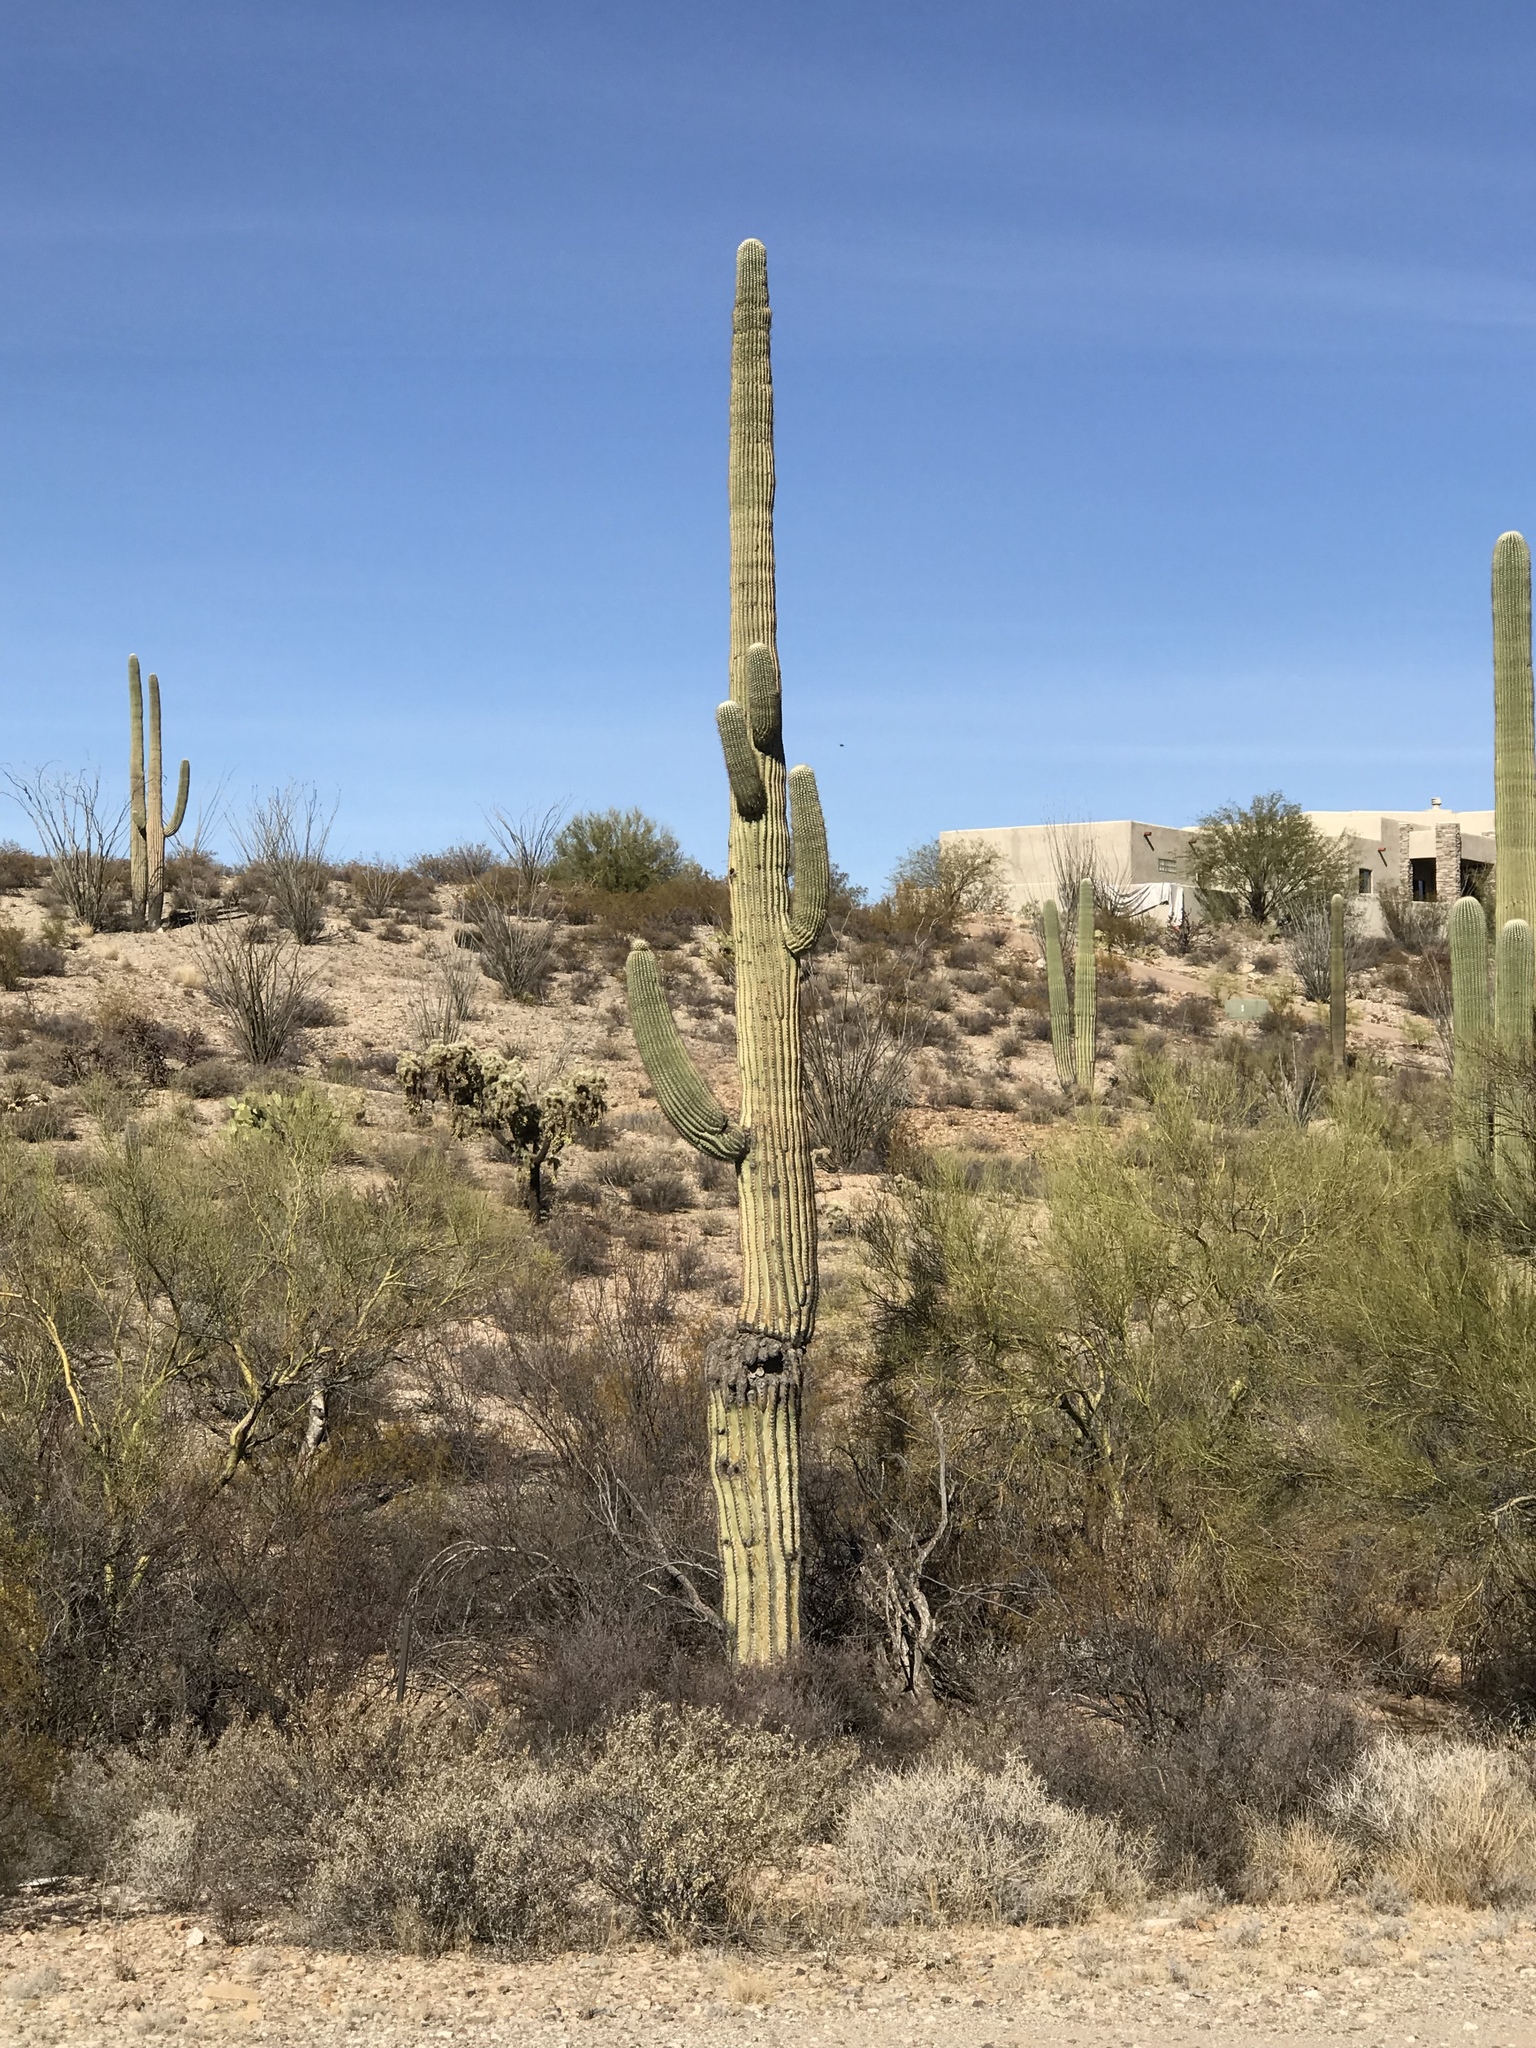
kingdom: Plantae
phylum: Tracheophyta
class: Magnoliopsida
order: Caryophyllales
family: Cactaceae
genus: Carnegiea
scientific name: Carnegiea gigantea
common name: Saguaro
